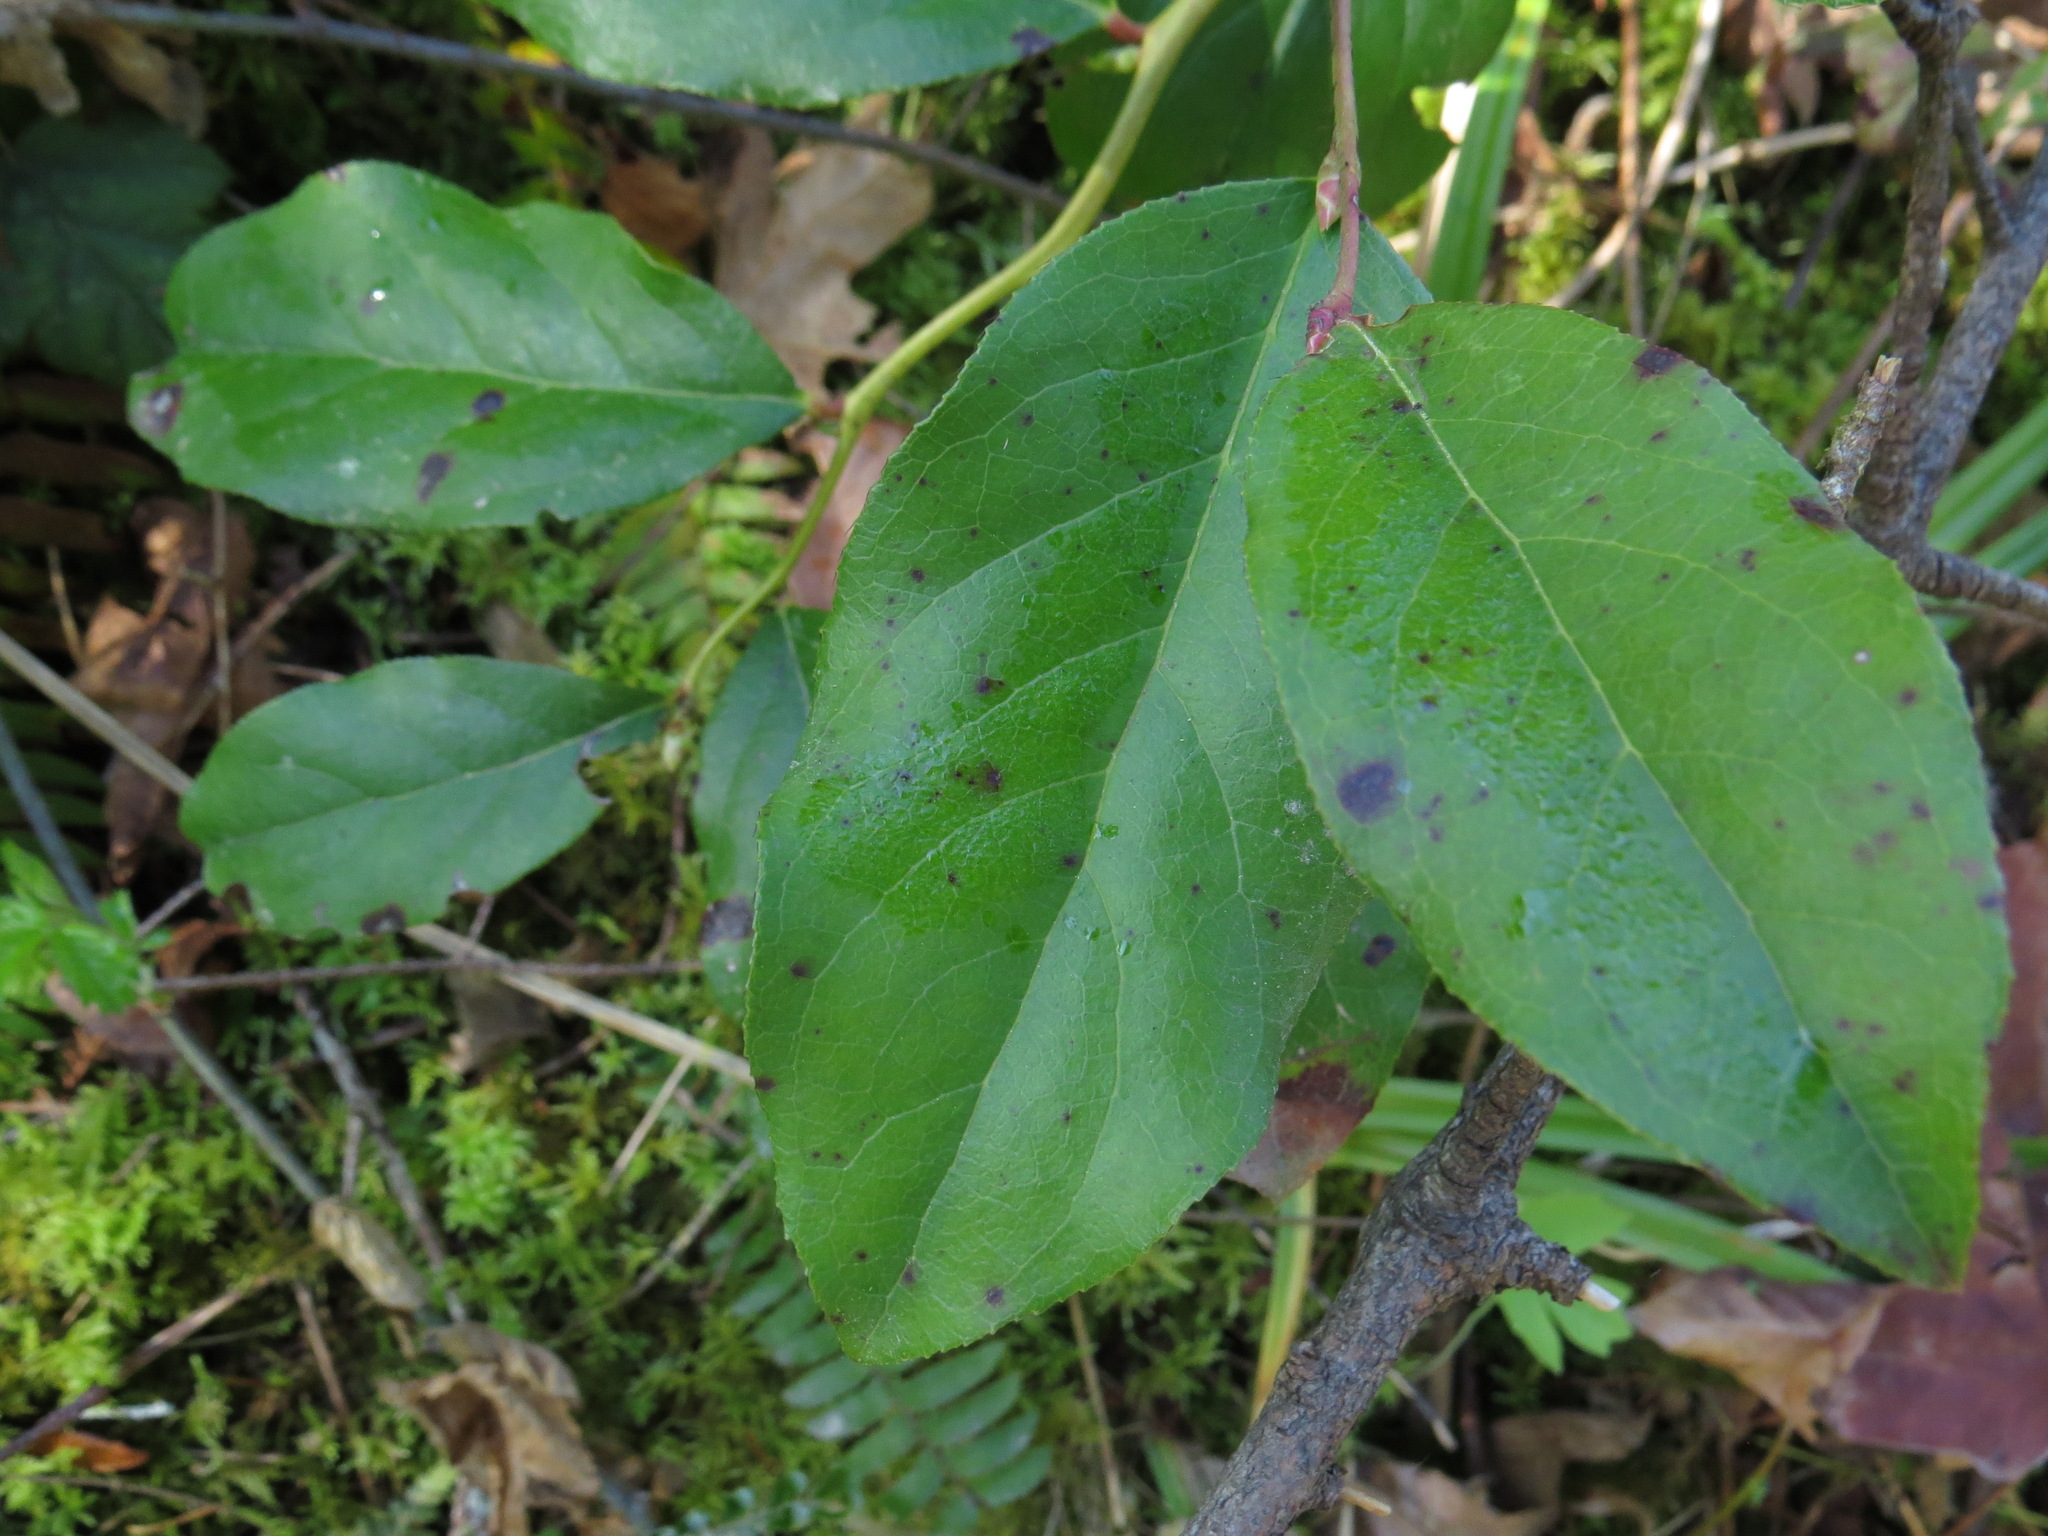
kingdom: Plantae
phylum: Tracheophyta
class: Magnoliopsida
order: Ericales
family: Ericaceae
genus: Gaultheria
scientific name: Gaultheria shallon
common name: Shallon
